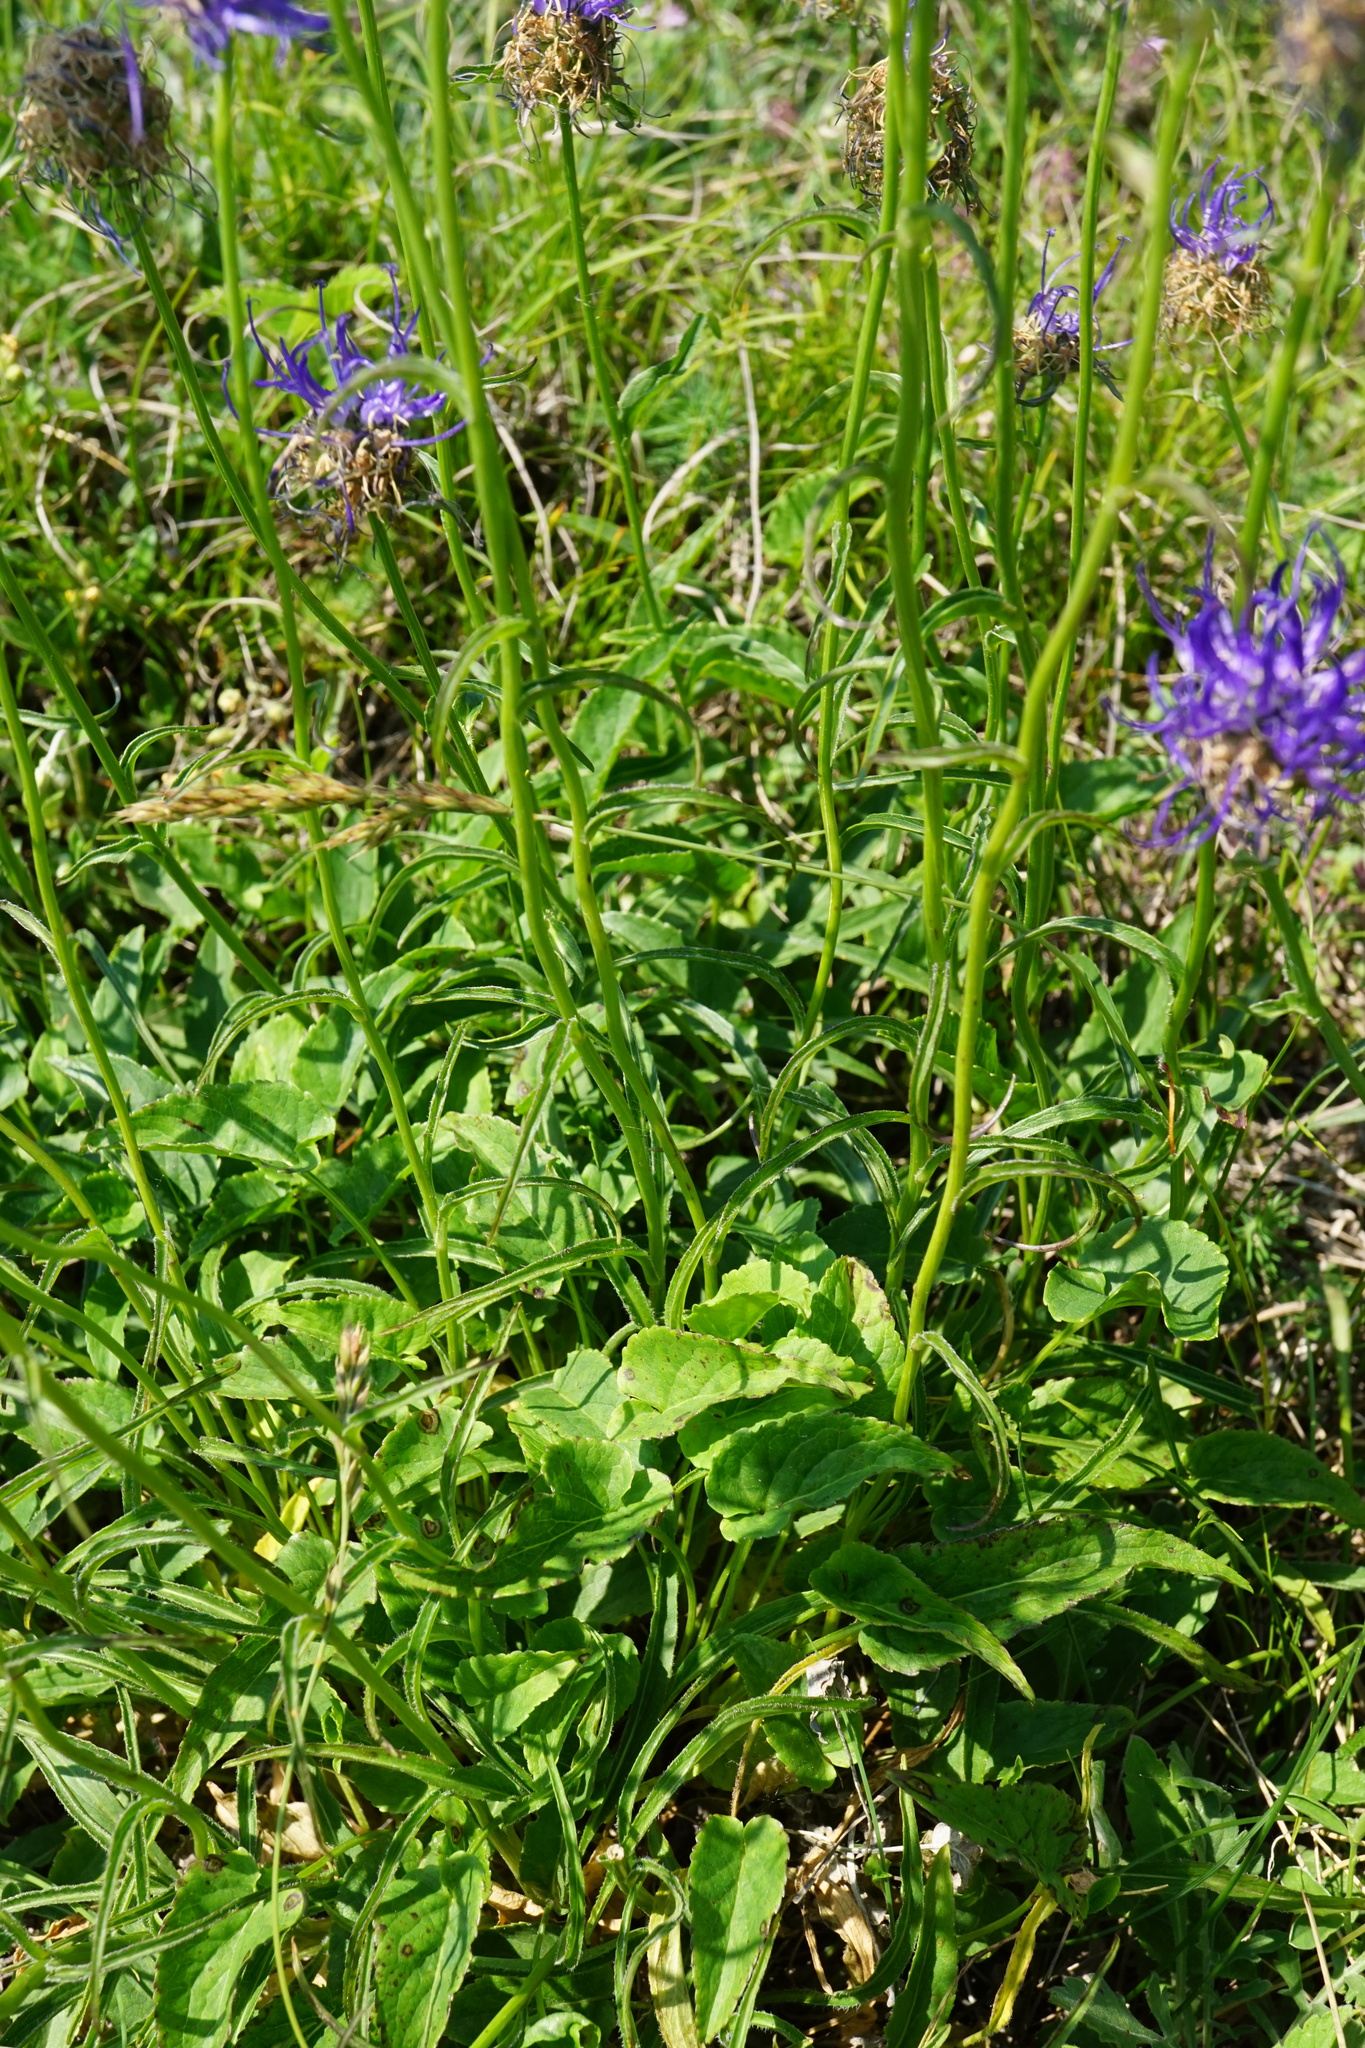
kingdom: Plantae
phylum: Tracheophyta
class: Magnoliopsida
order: Asterales
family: Campanulaceae
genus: Phyteuma
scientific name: Phyteuma orbiculare
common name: Round-headed rampion
